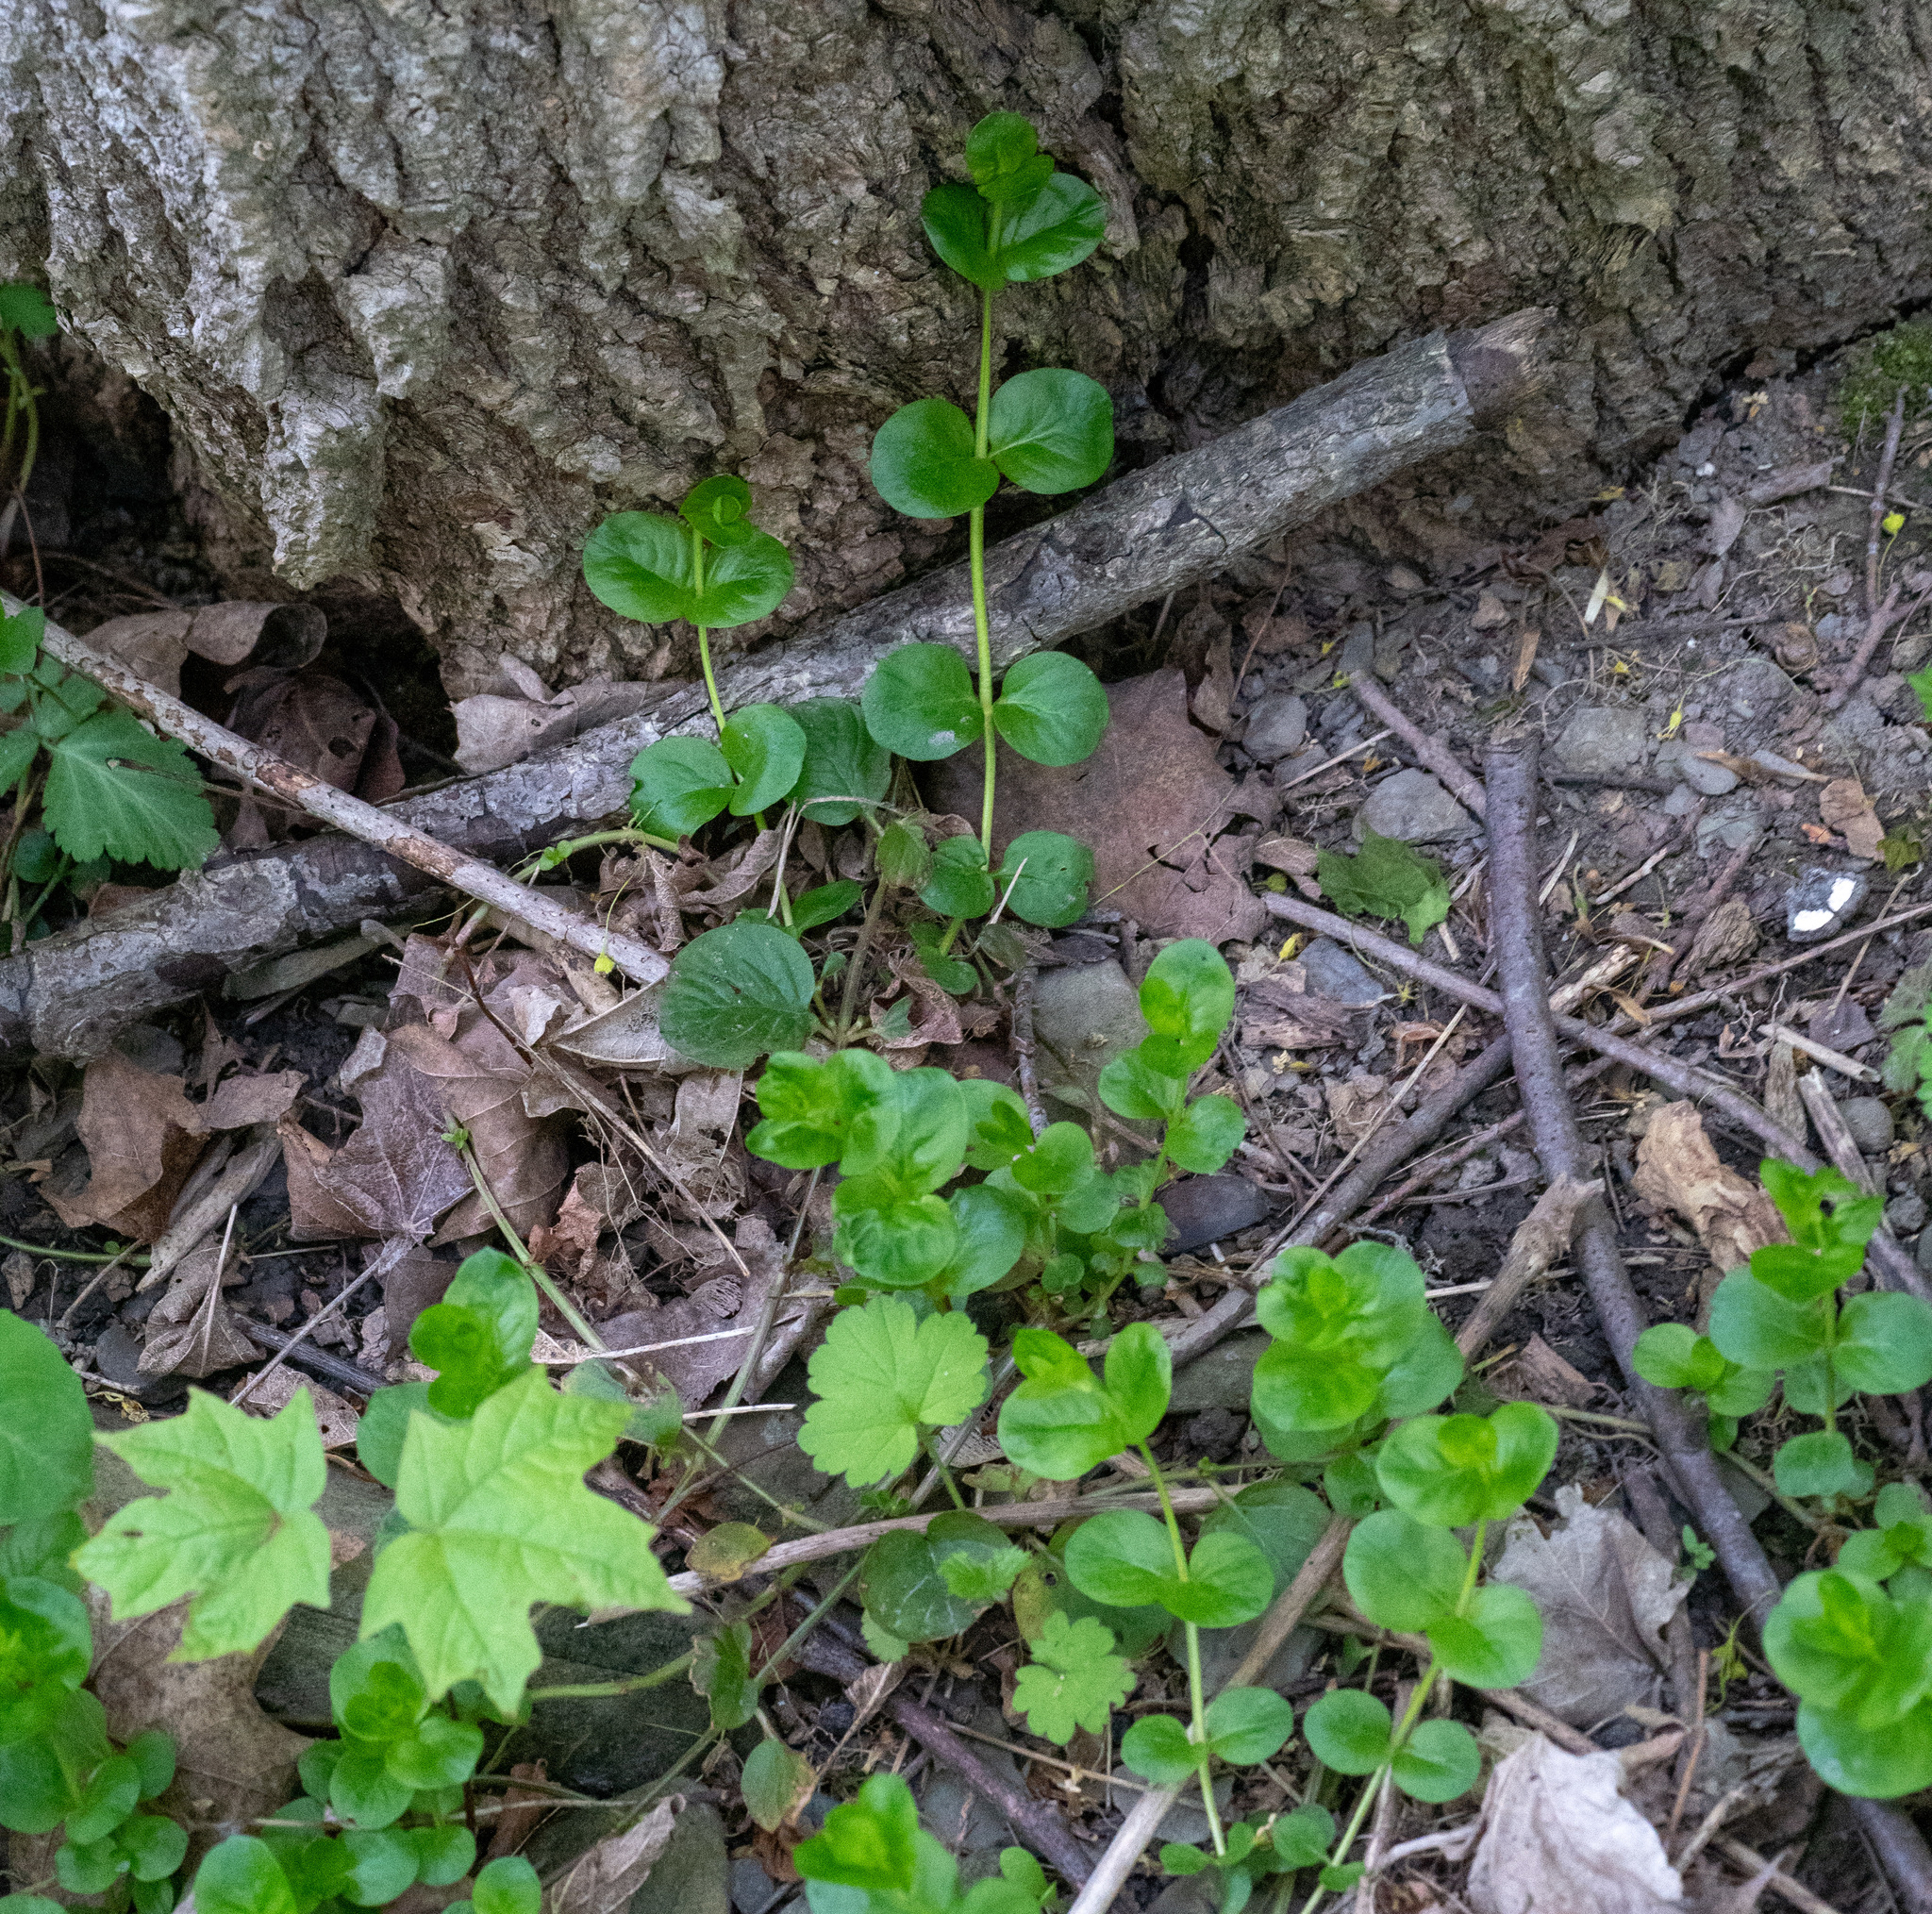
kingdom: Plantae
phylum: Tracheophyta
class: Magnoliopsida
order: Ericales
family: Primulaceae
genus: Lysimachia
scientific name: Lysimachia nummularia
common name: Moneywort
